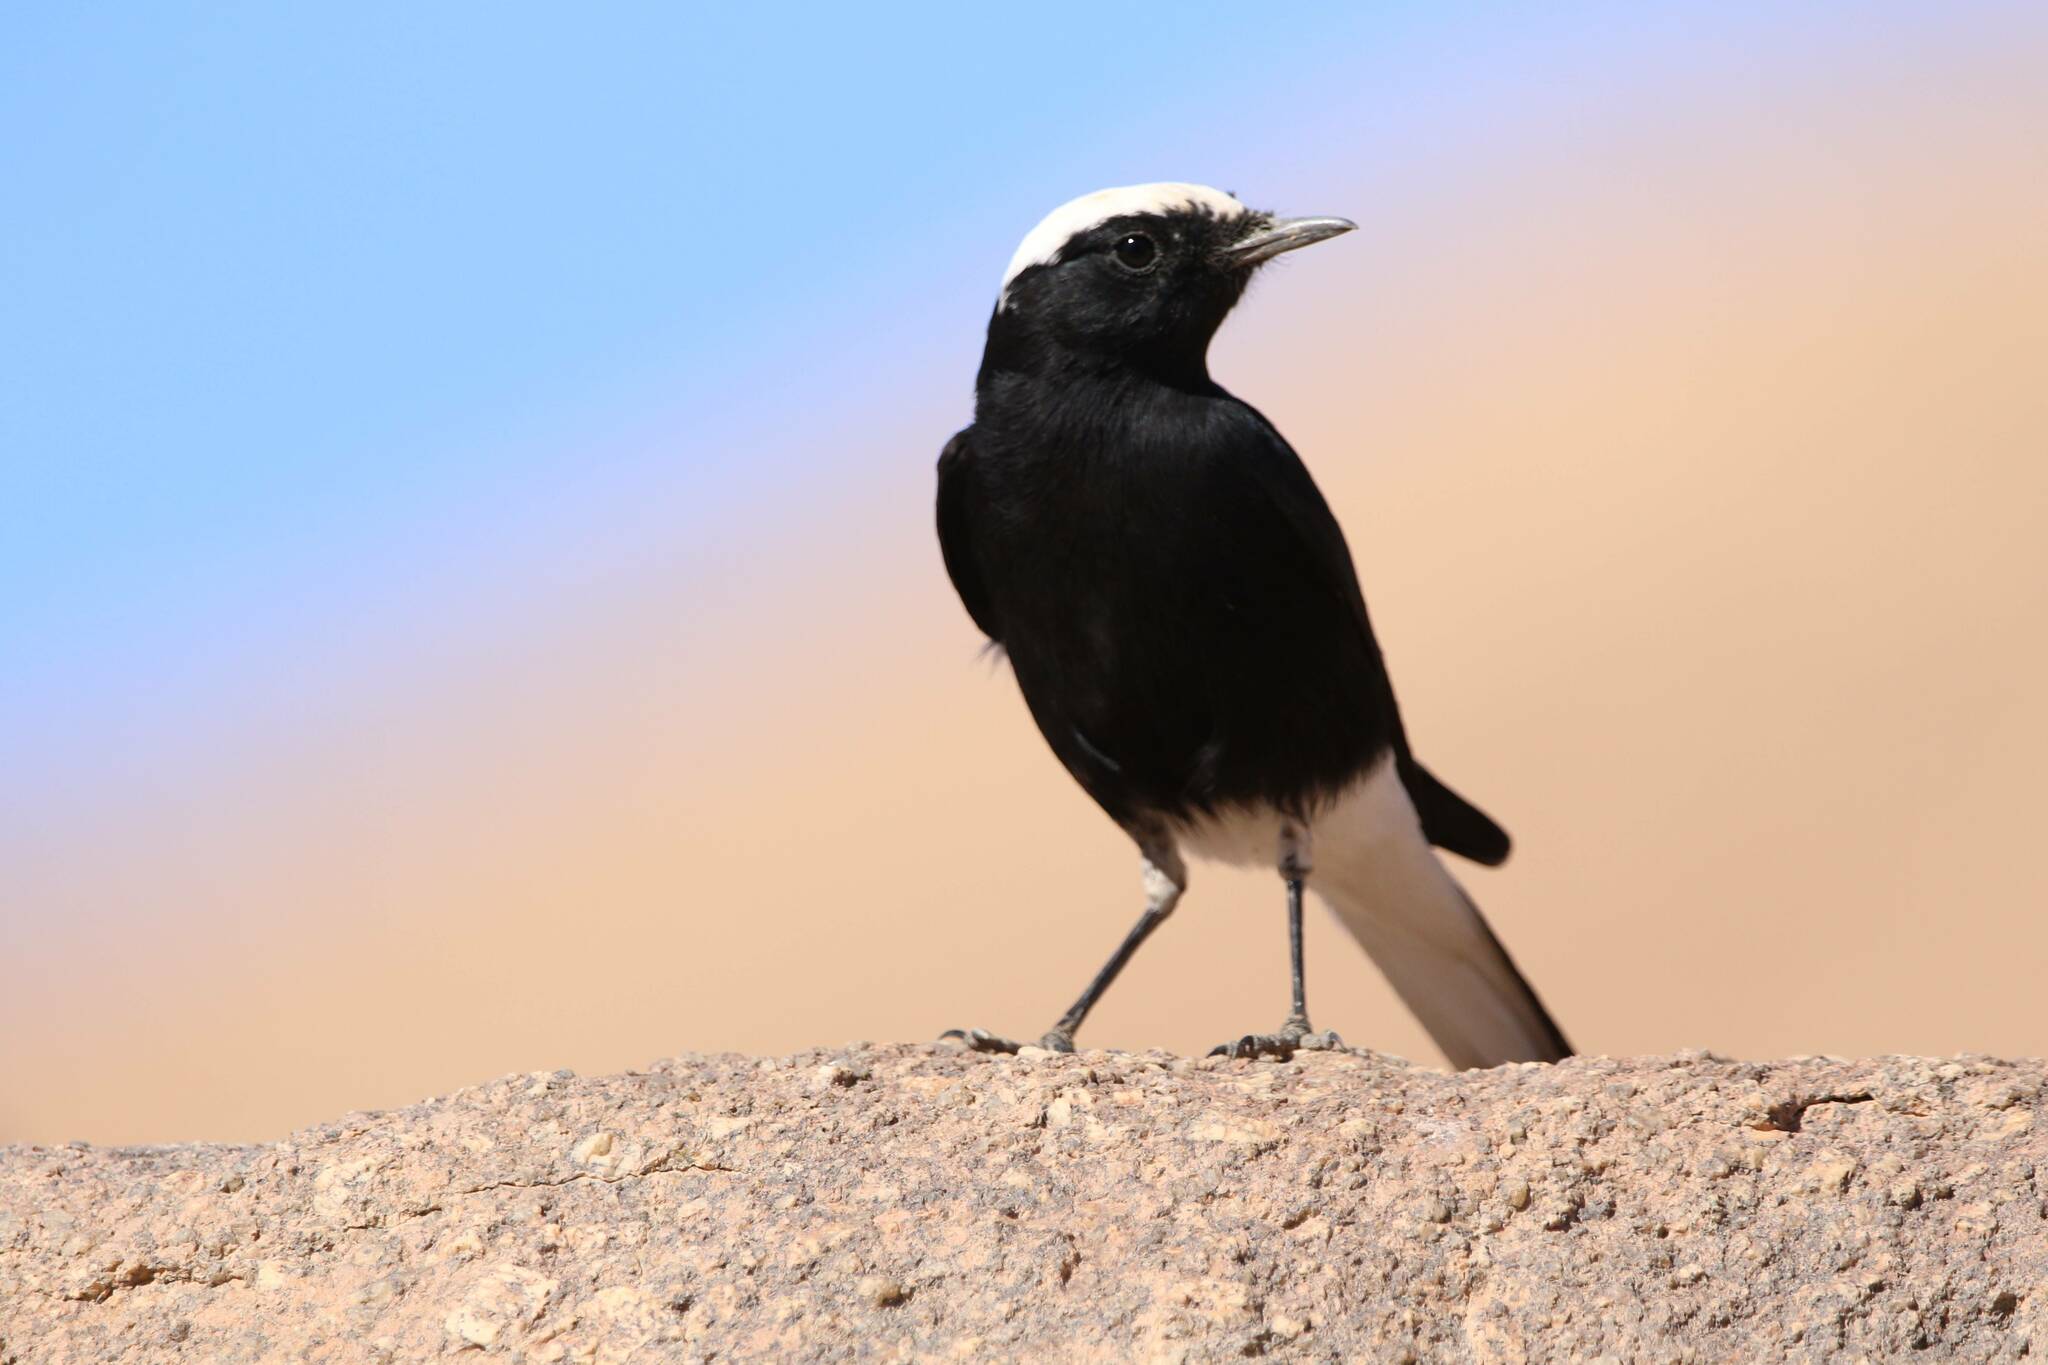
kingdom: Animalia
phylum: Chordata
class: Aves
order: Passeriformes
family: Muscicapidae
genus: Oenanthe
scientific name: Oenanthe leucopyga
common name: White-crowned wheatear
